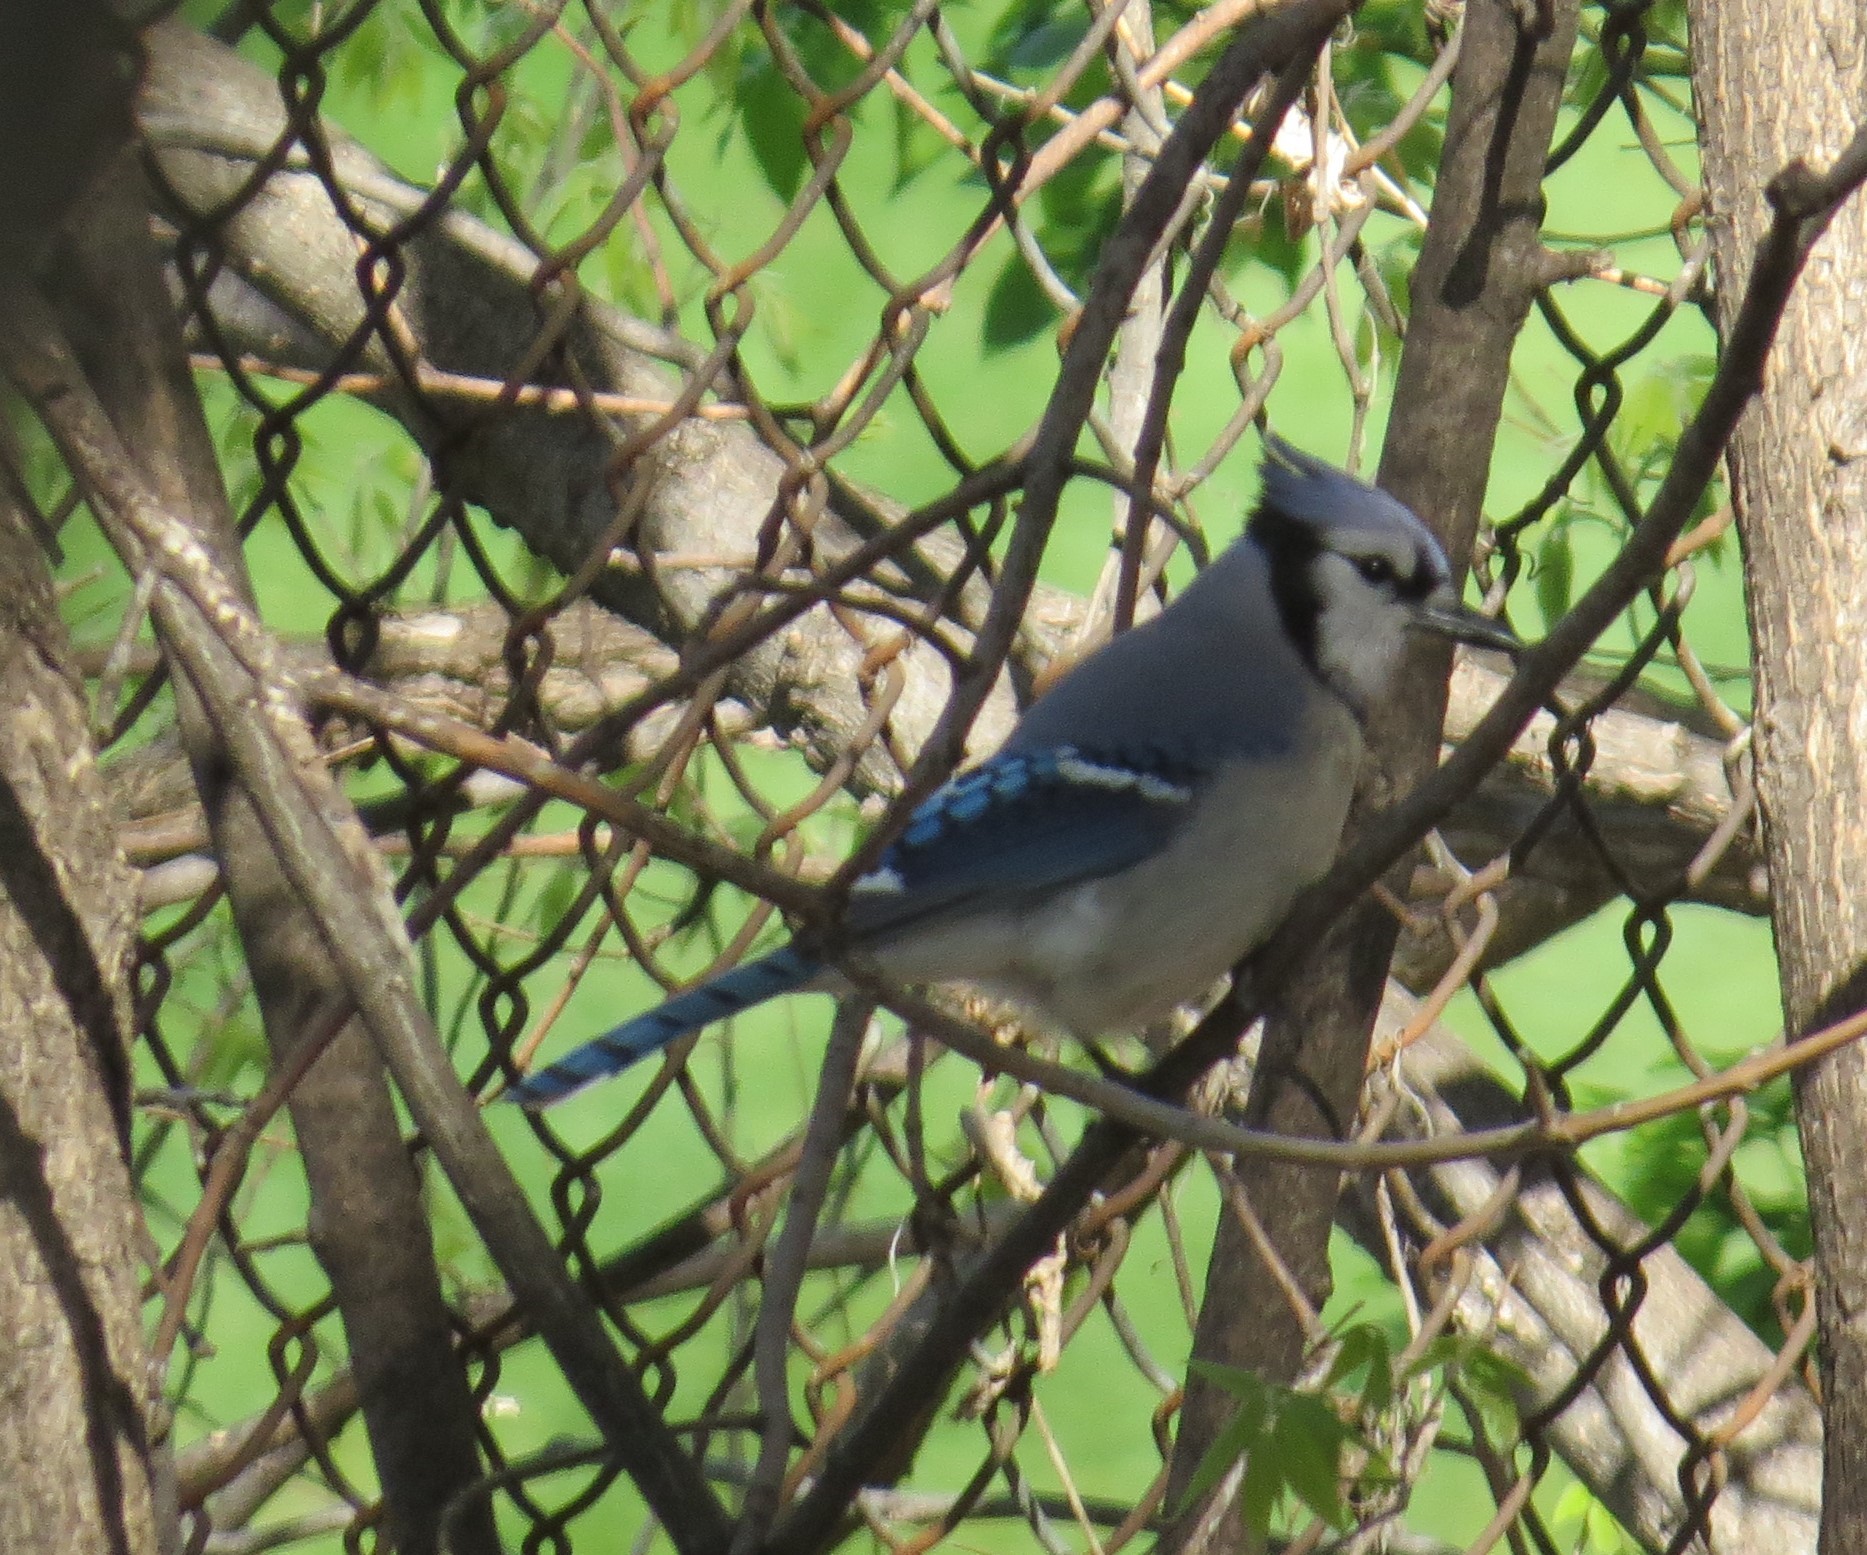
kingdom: Animalia
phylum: Chordata
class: Aves
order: Passeriformes
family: Corvidae
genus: Cyanocitta
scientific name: Cyanocitta cristata
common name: Blue jay
